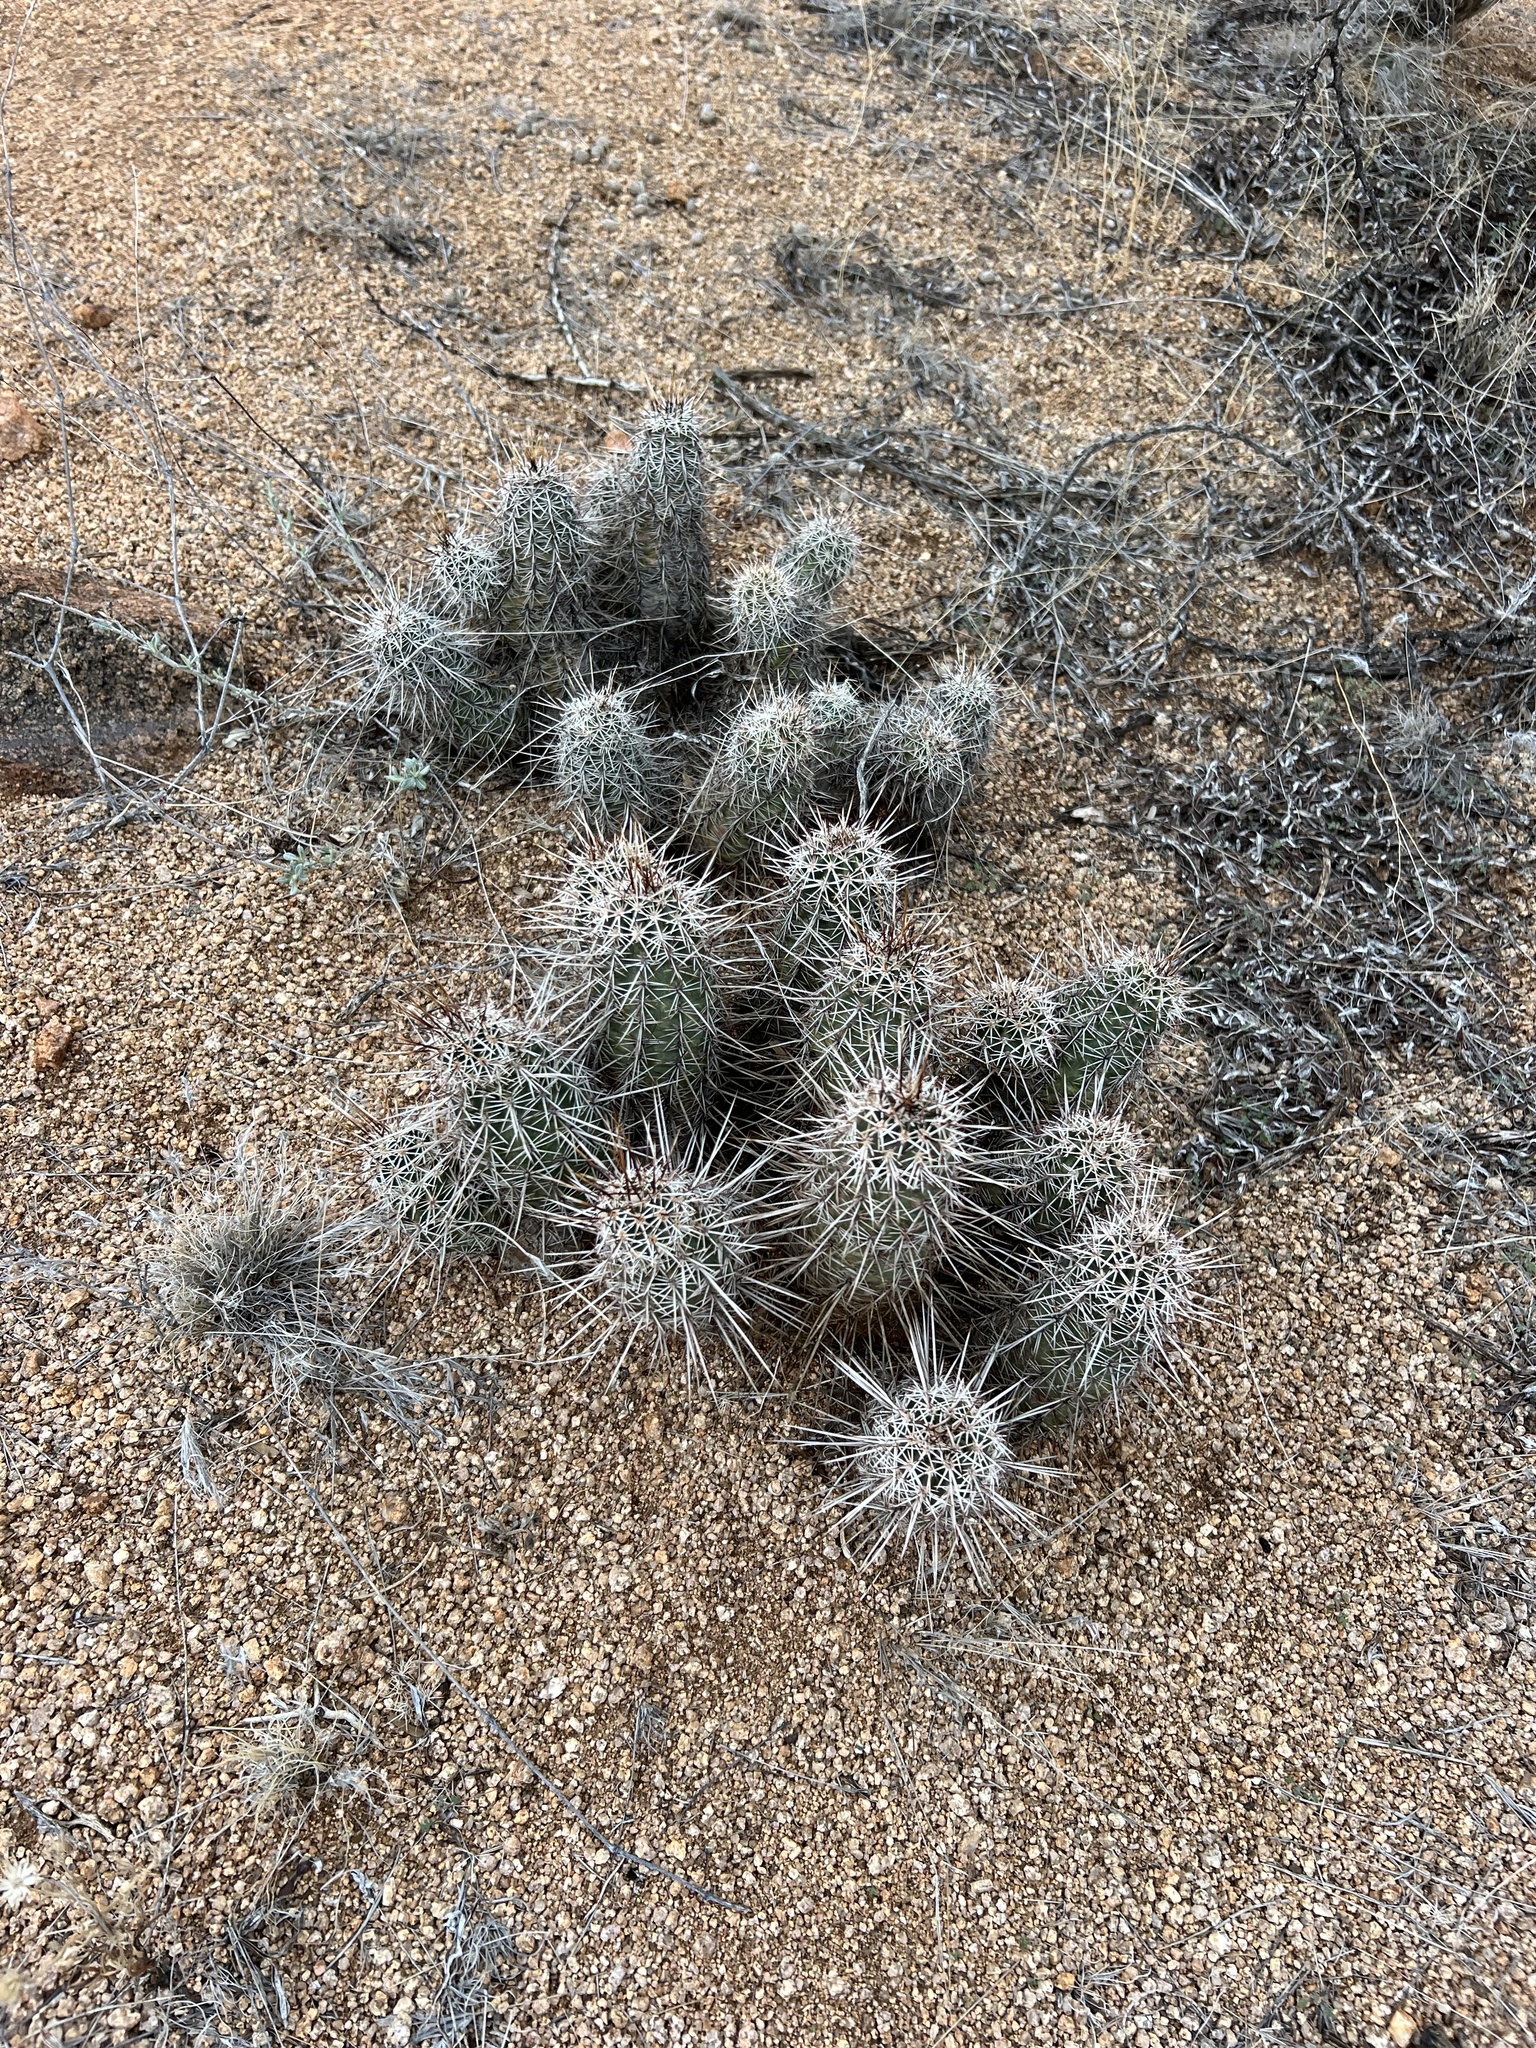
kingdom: Plantae
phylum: Tracheophyta
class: Magnoliopsida
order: Caryophyllales
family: Cactaceae
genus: Echinocereus
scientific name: Echinocereus fasciculatus
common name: Bundle hedgehog
